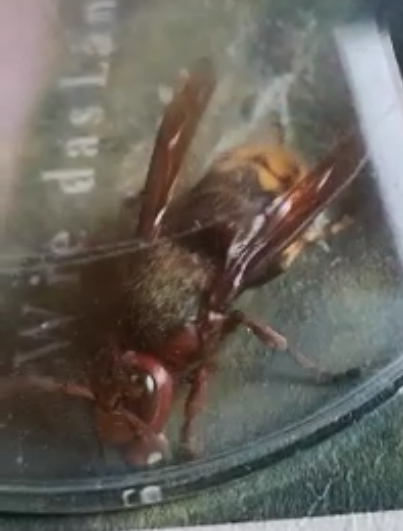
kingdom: Animalia
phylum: Arthropoda
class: Insecta
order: Hymenoptera
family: Vespidae
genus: Vespa
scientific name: Vespa crabro
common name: Hornet
